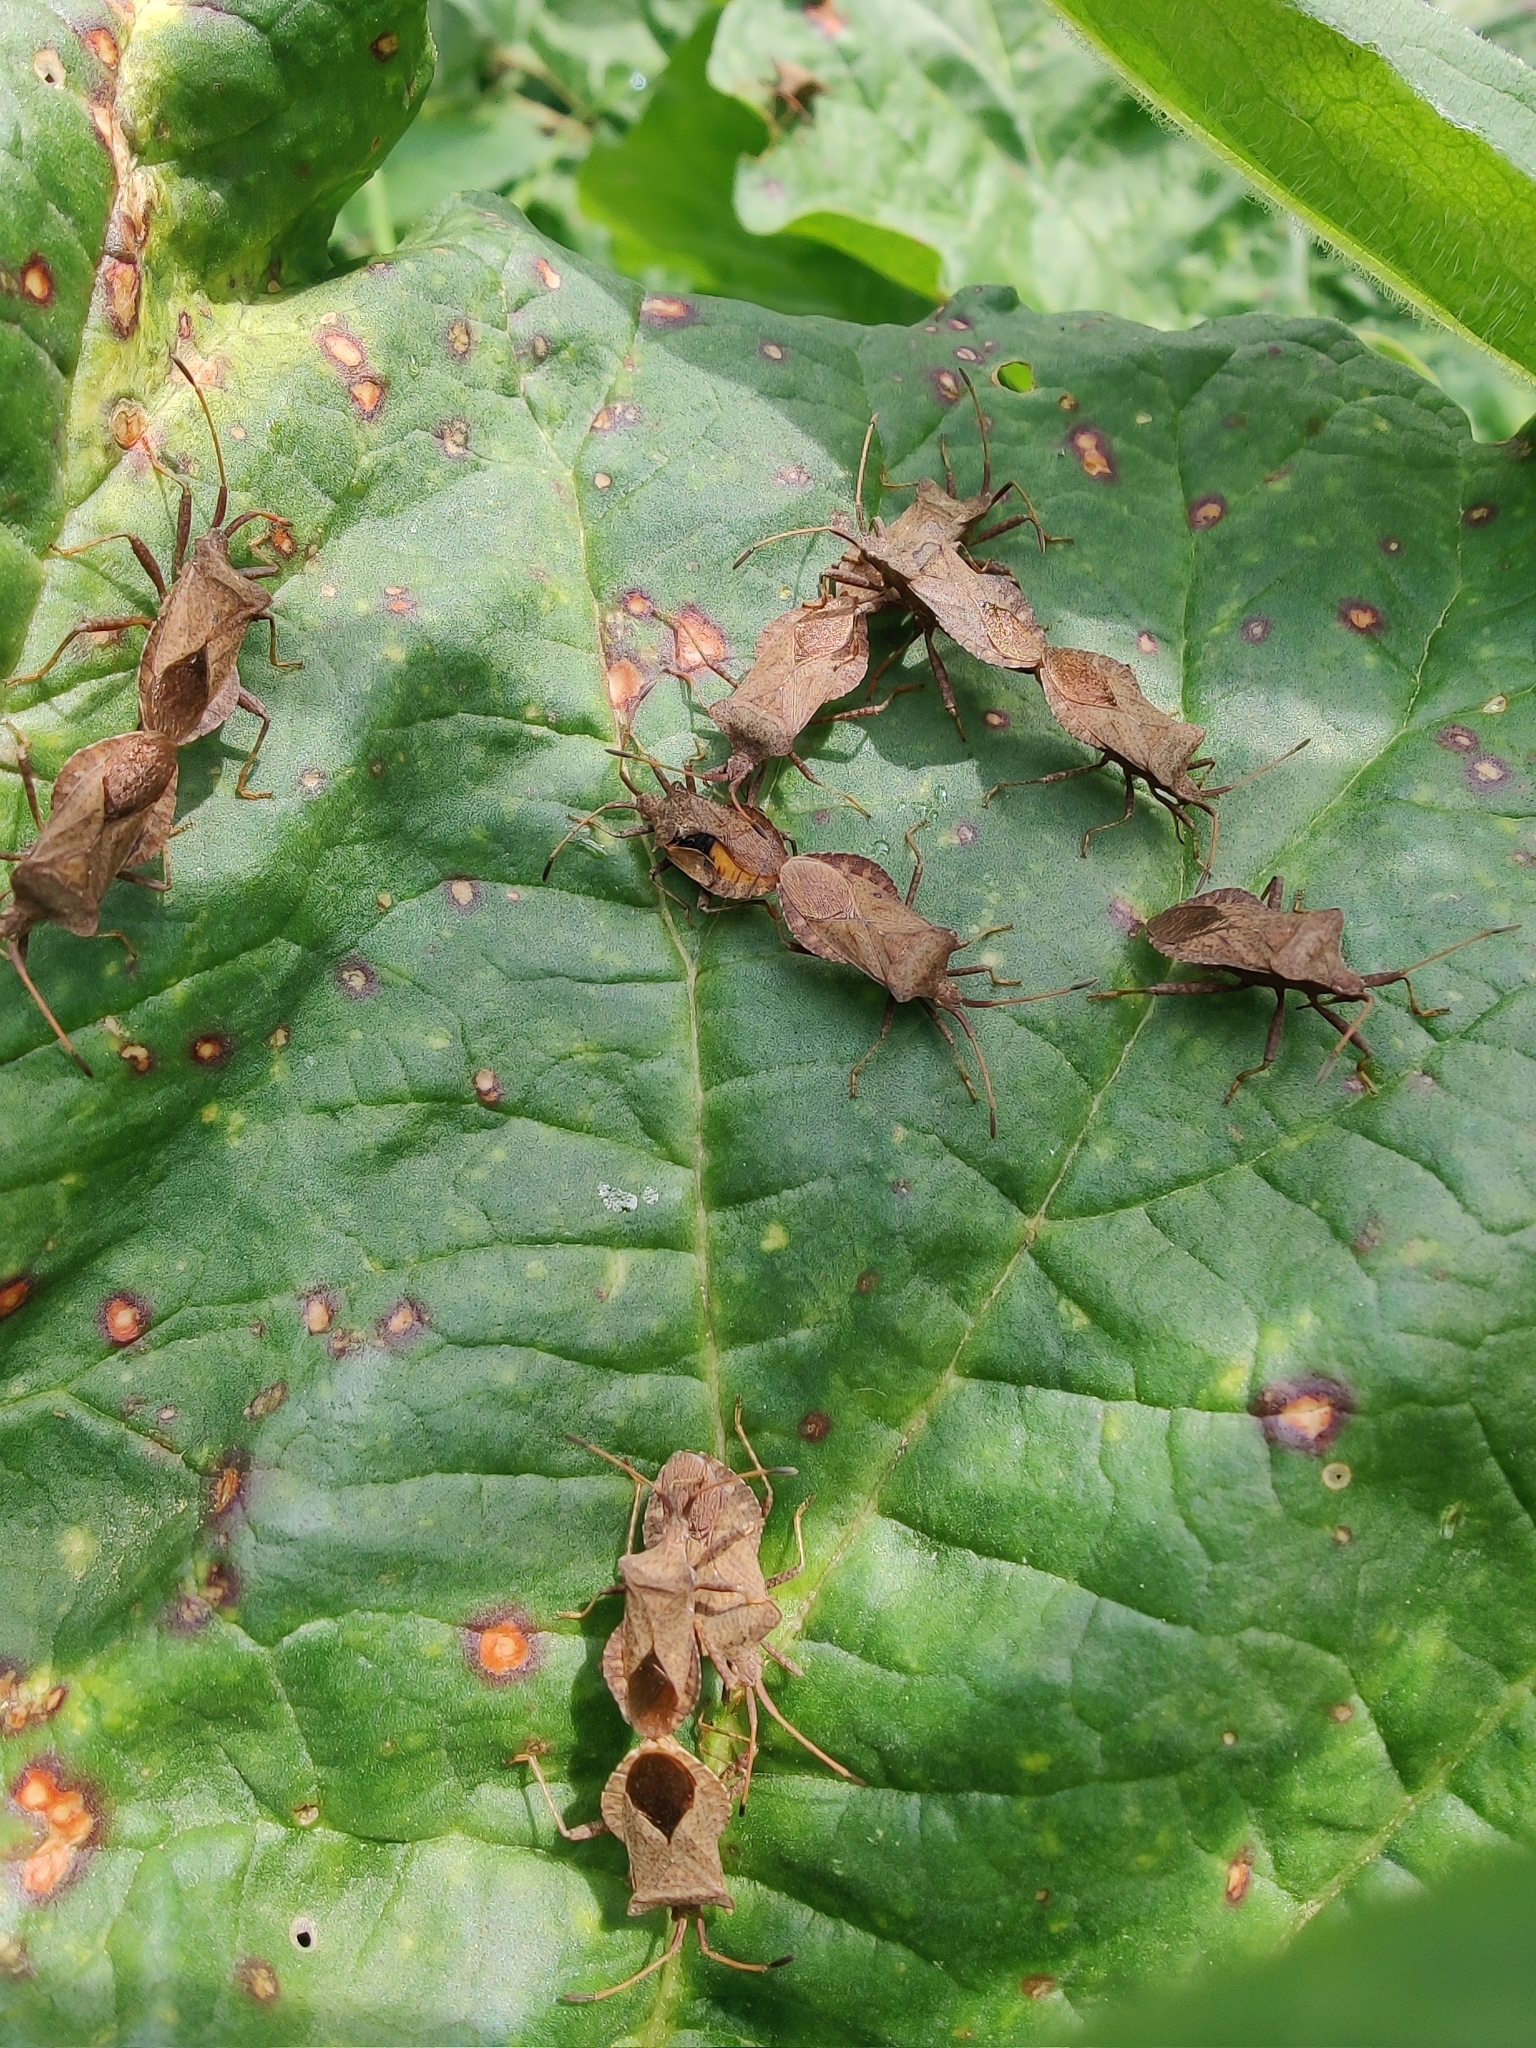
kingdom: Animalia
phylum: Arthropoda
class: Insecta
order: Hemiptera
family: Coreidae
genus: Coreus
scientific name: Coreus marginatus
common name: Dock bug
